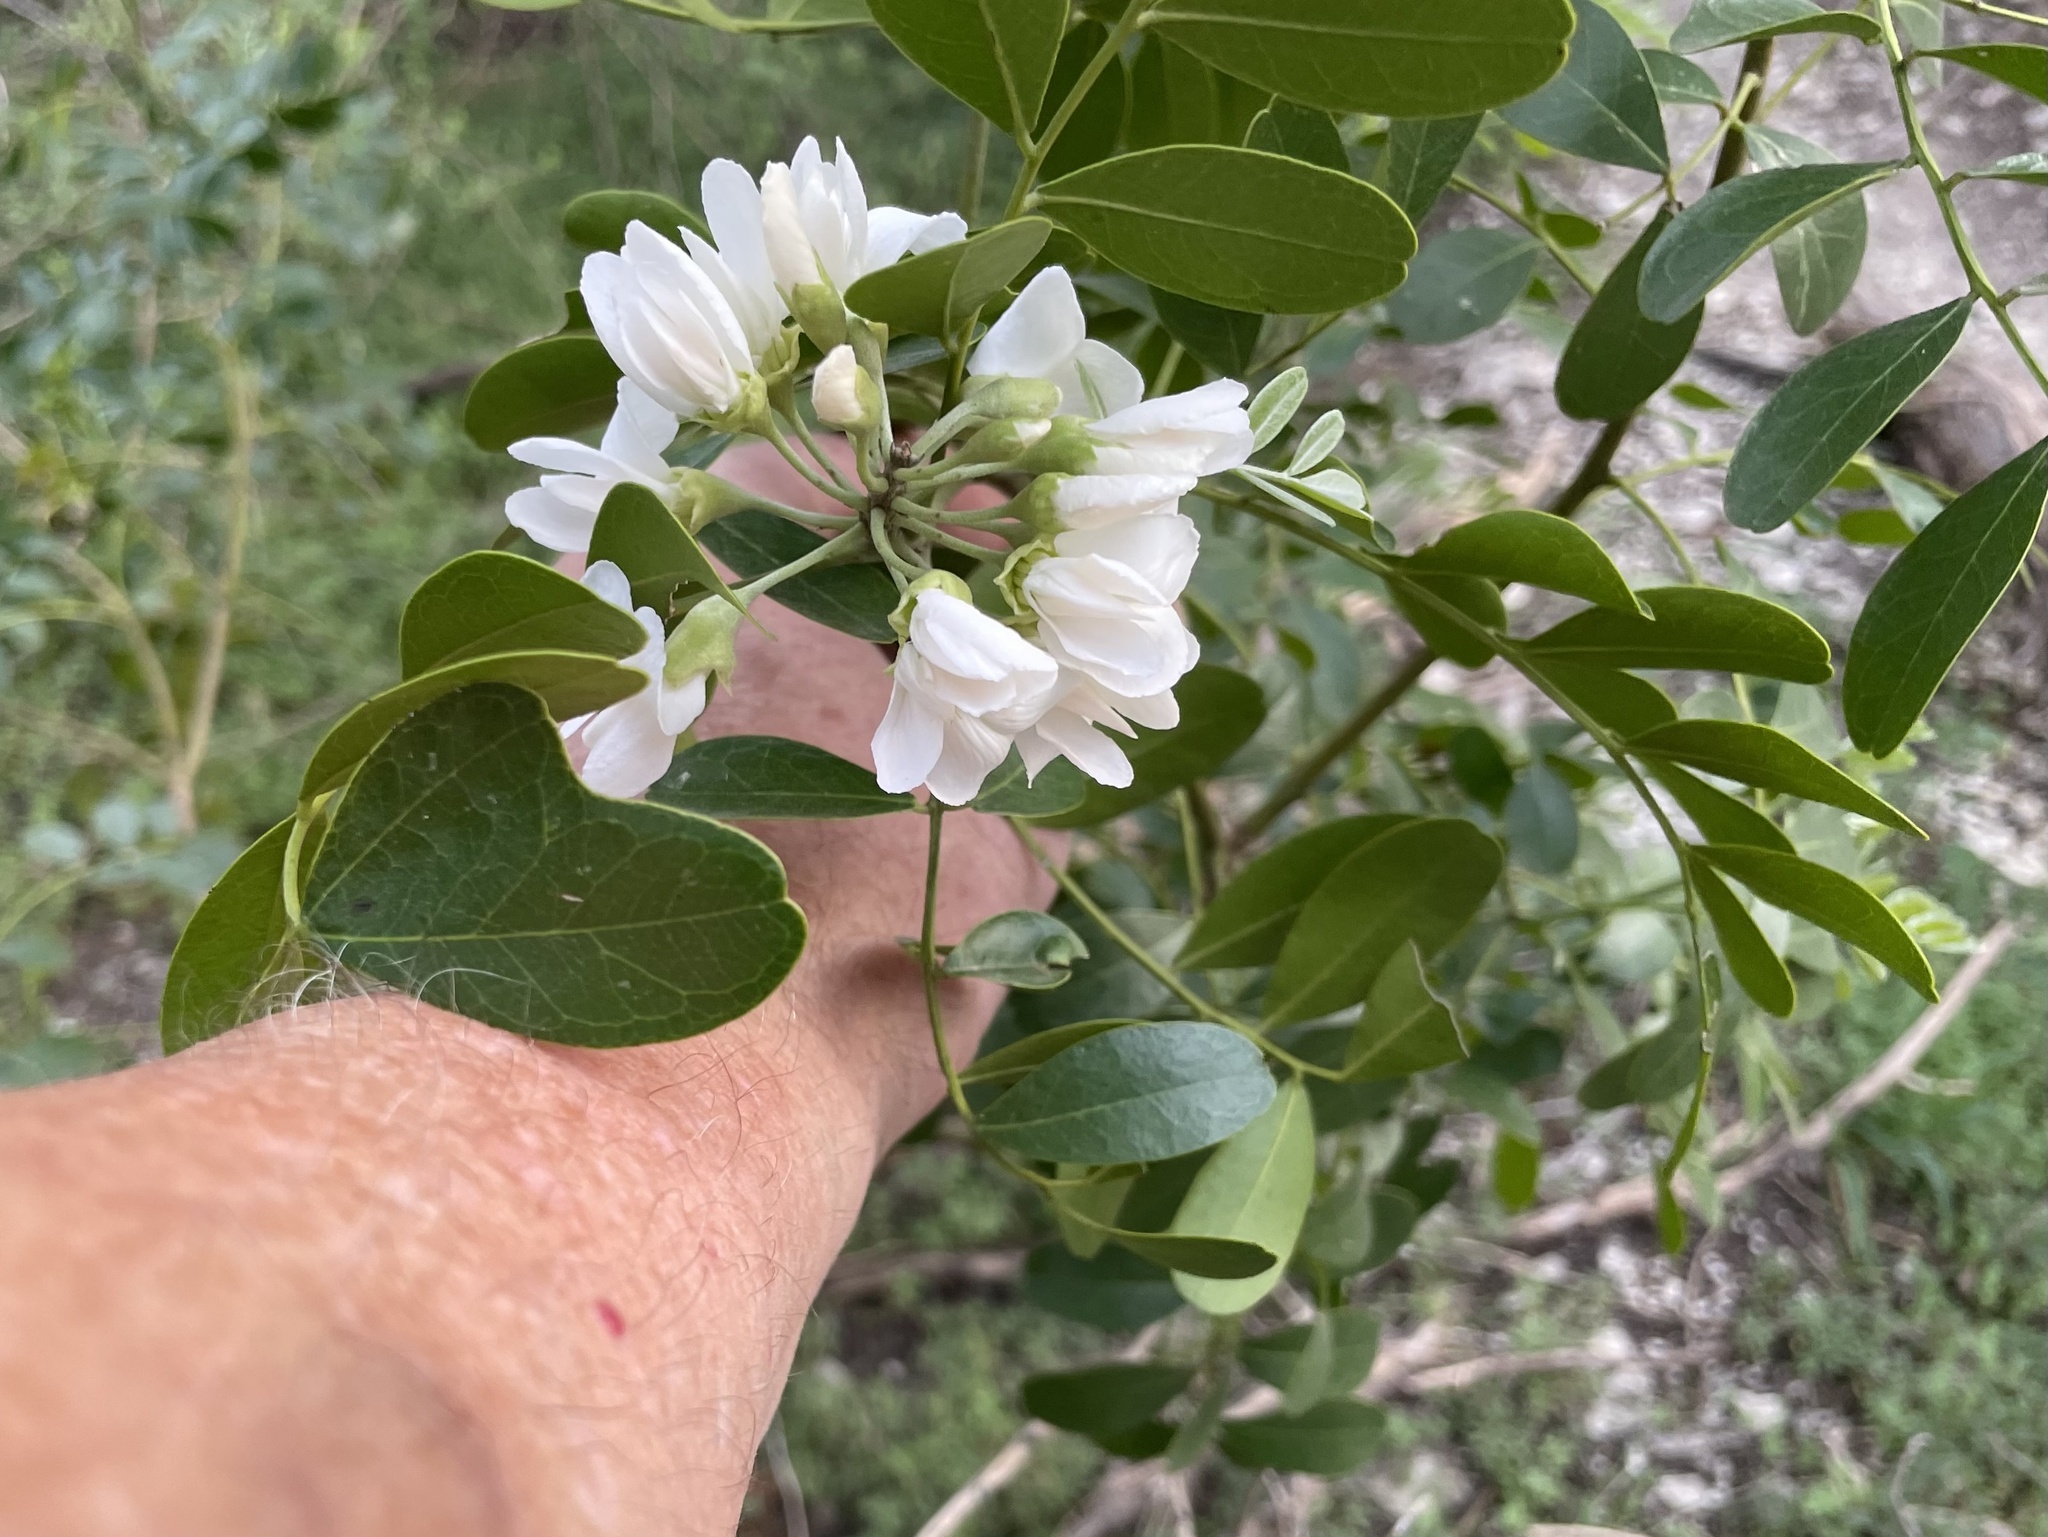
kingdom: Plantae
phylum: Tracheophyta
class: Magnoliopsida
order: Fabales
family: Fabaceae
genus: Dermatophyllum
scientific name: Dermatophyllum secundiflorum
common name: Texas-mountain-laurel
